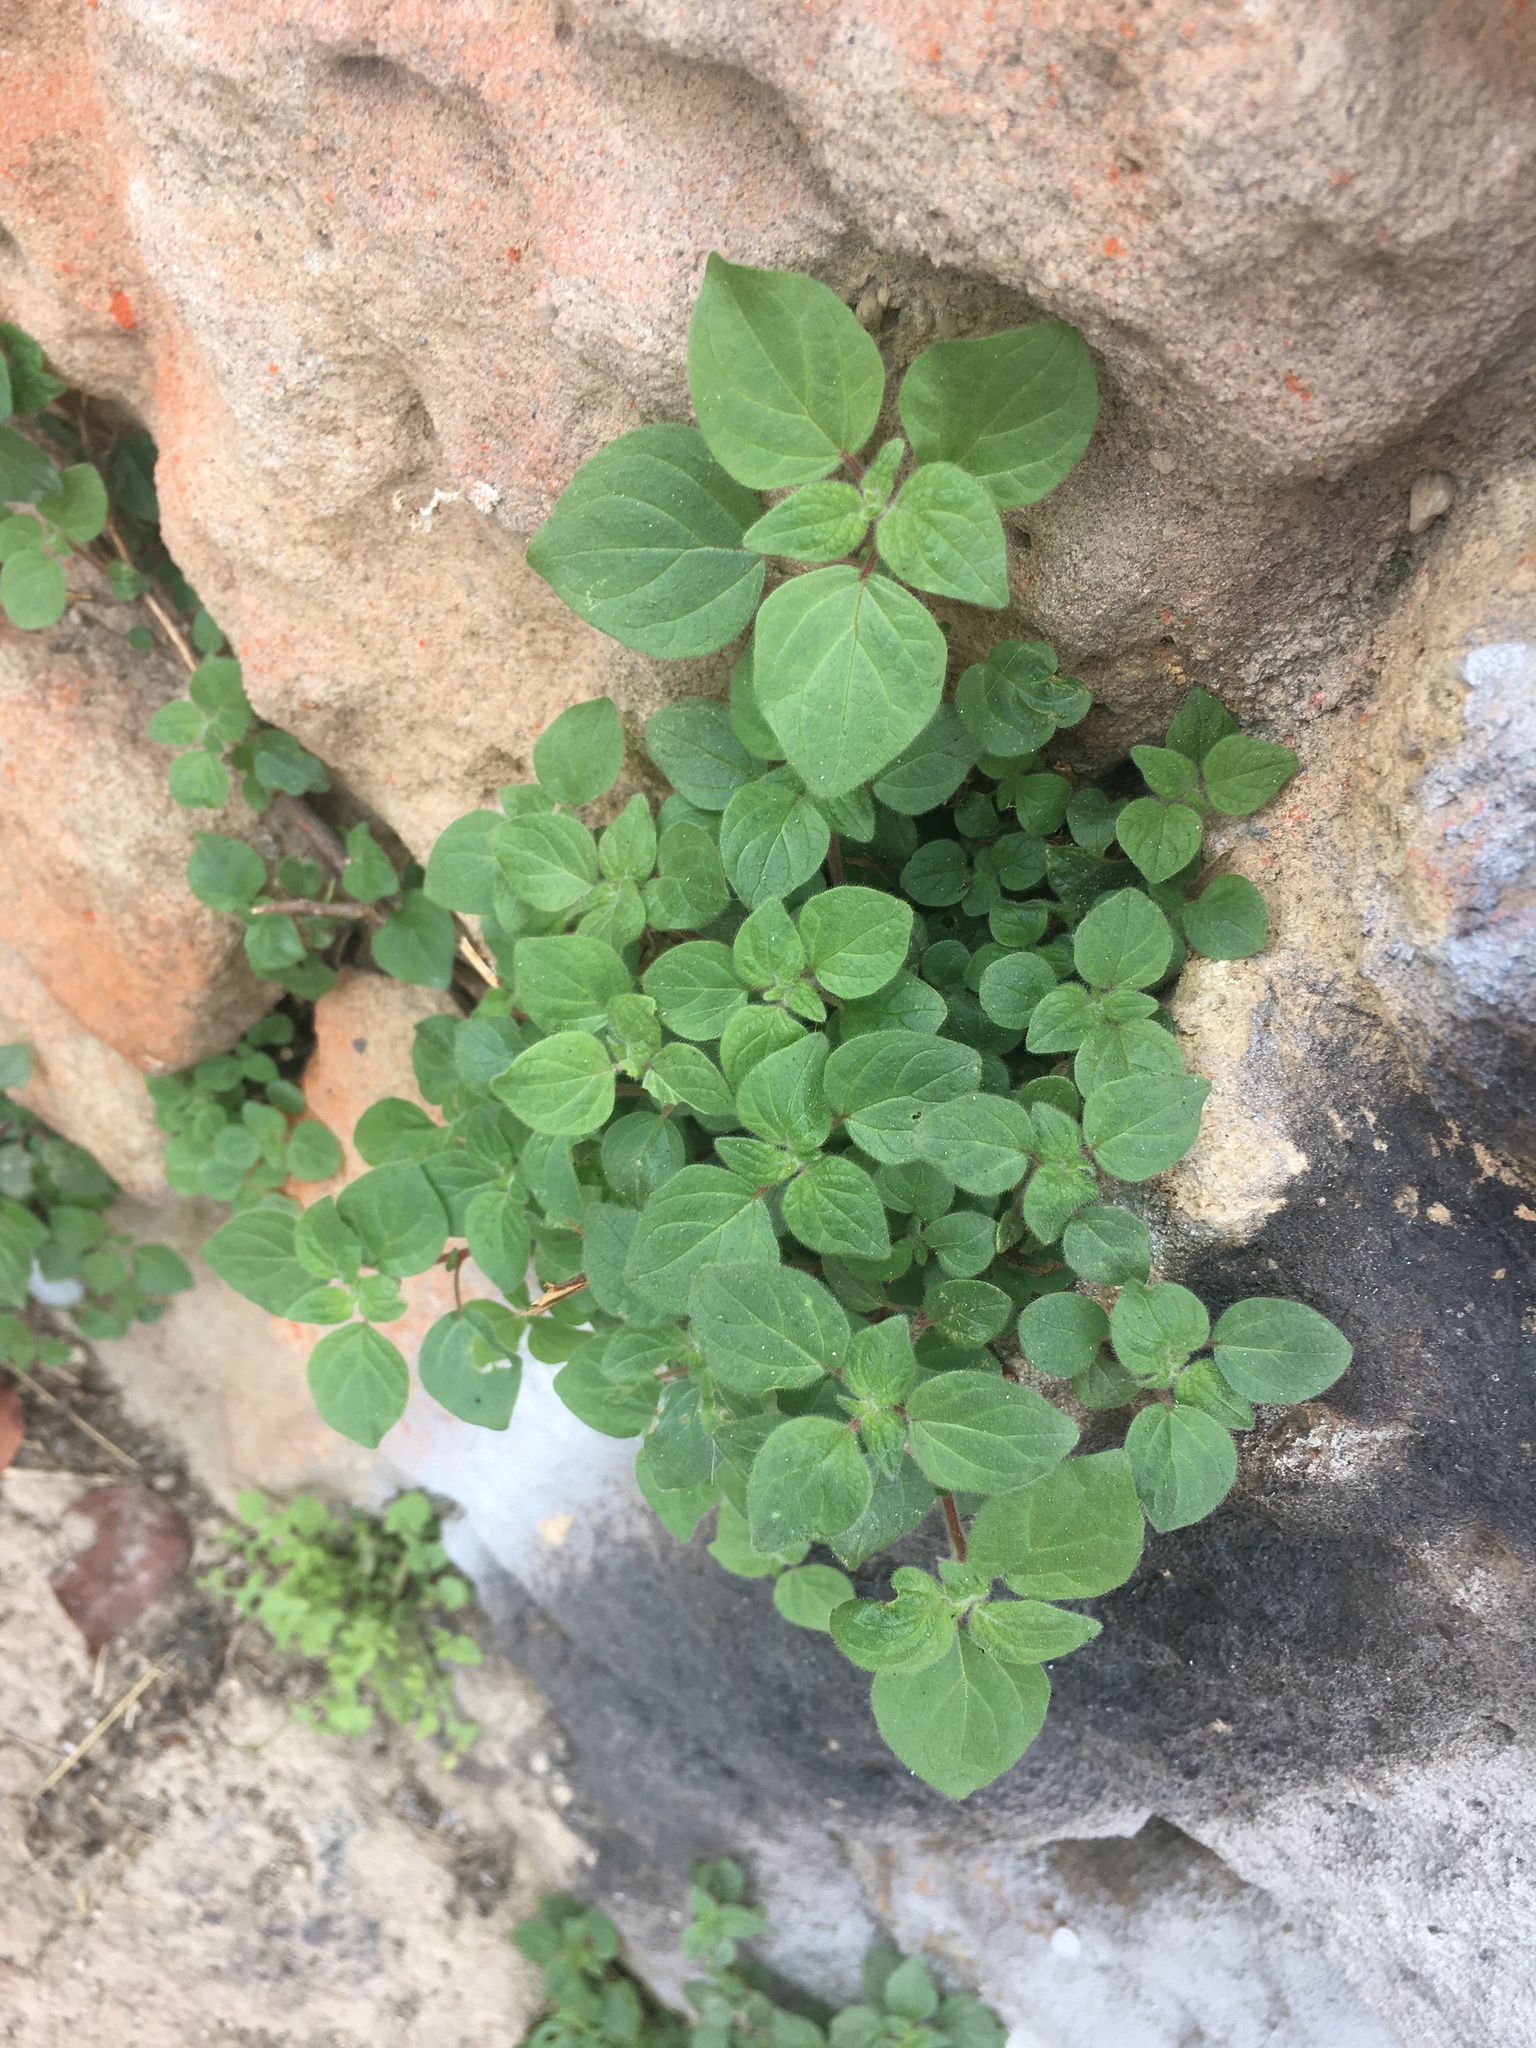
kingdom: Plantae
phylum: Tracheophyta
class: Magnoliopsida
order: Rosales
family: Urticaceae
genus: Parietaria
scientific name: Parietaria judaica
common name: Pellitory-of-the-wall
